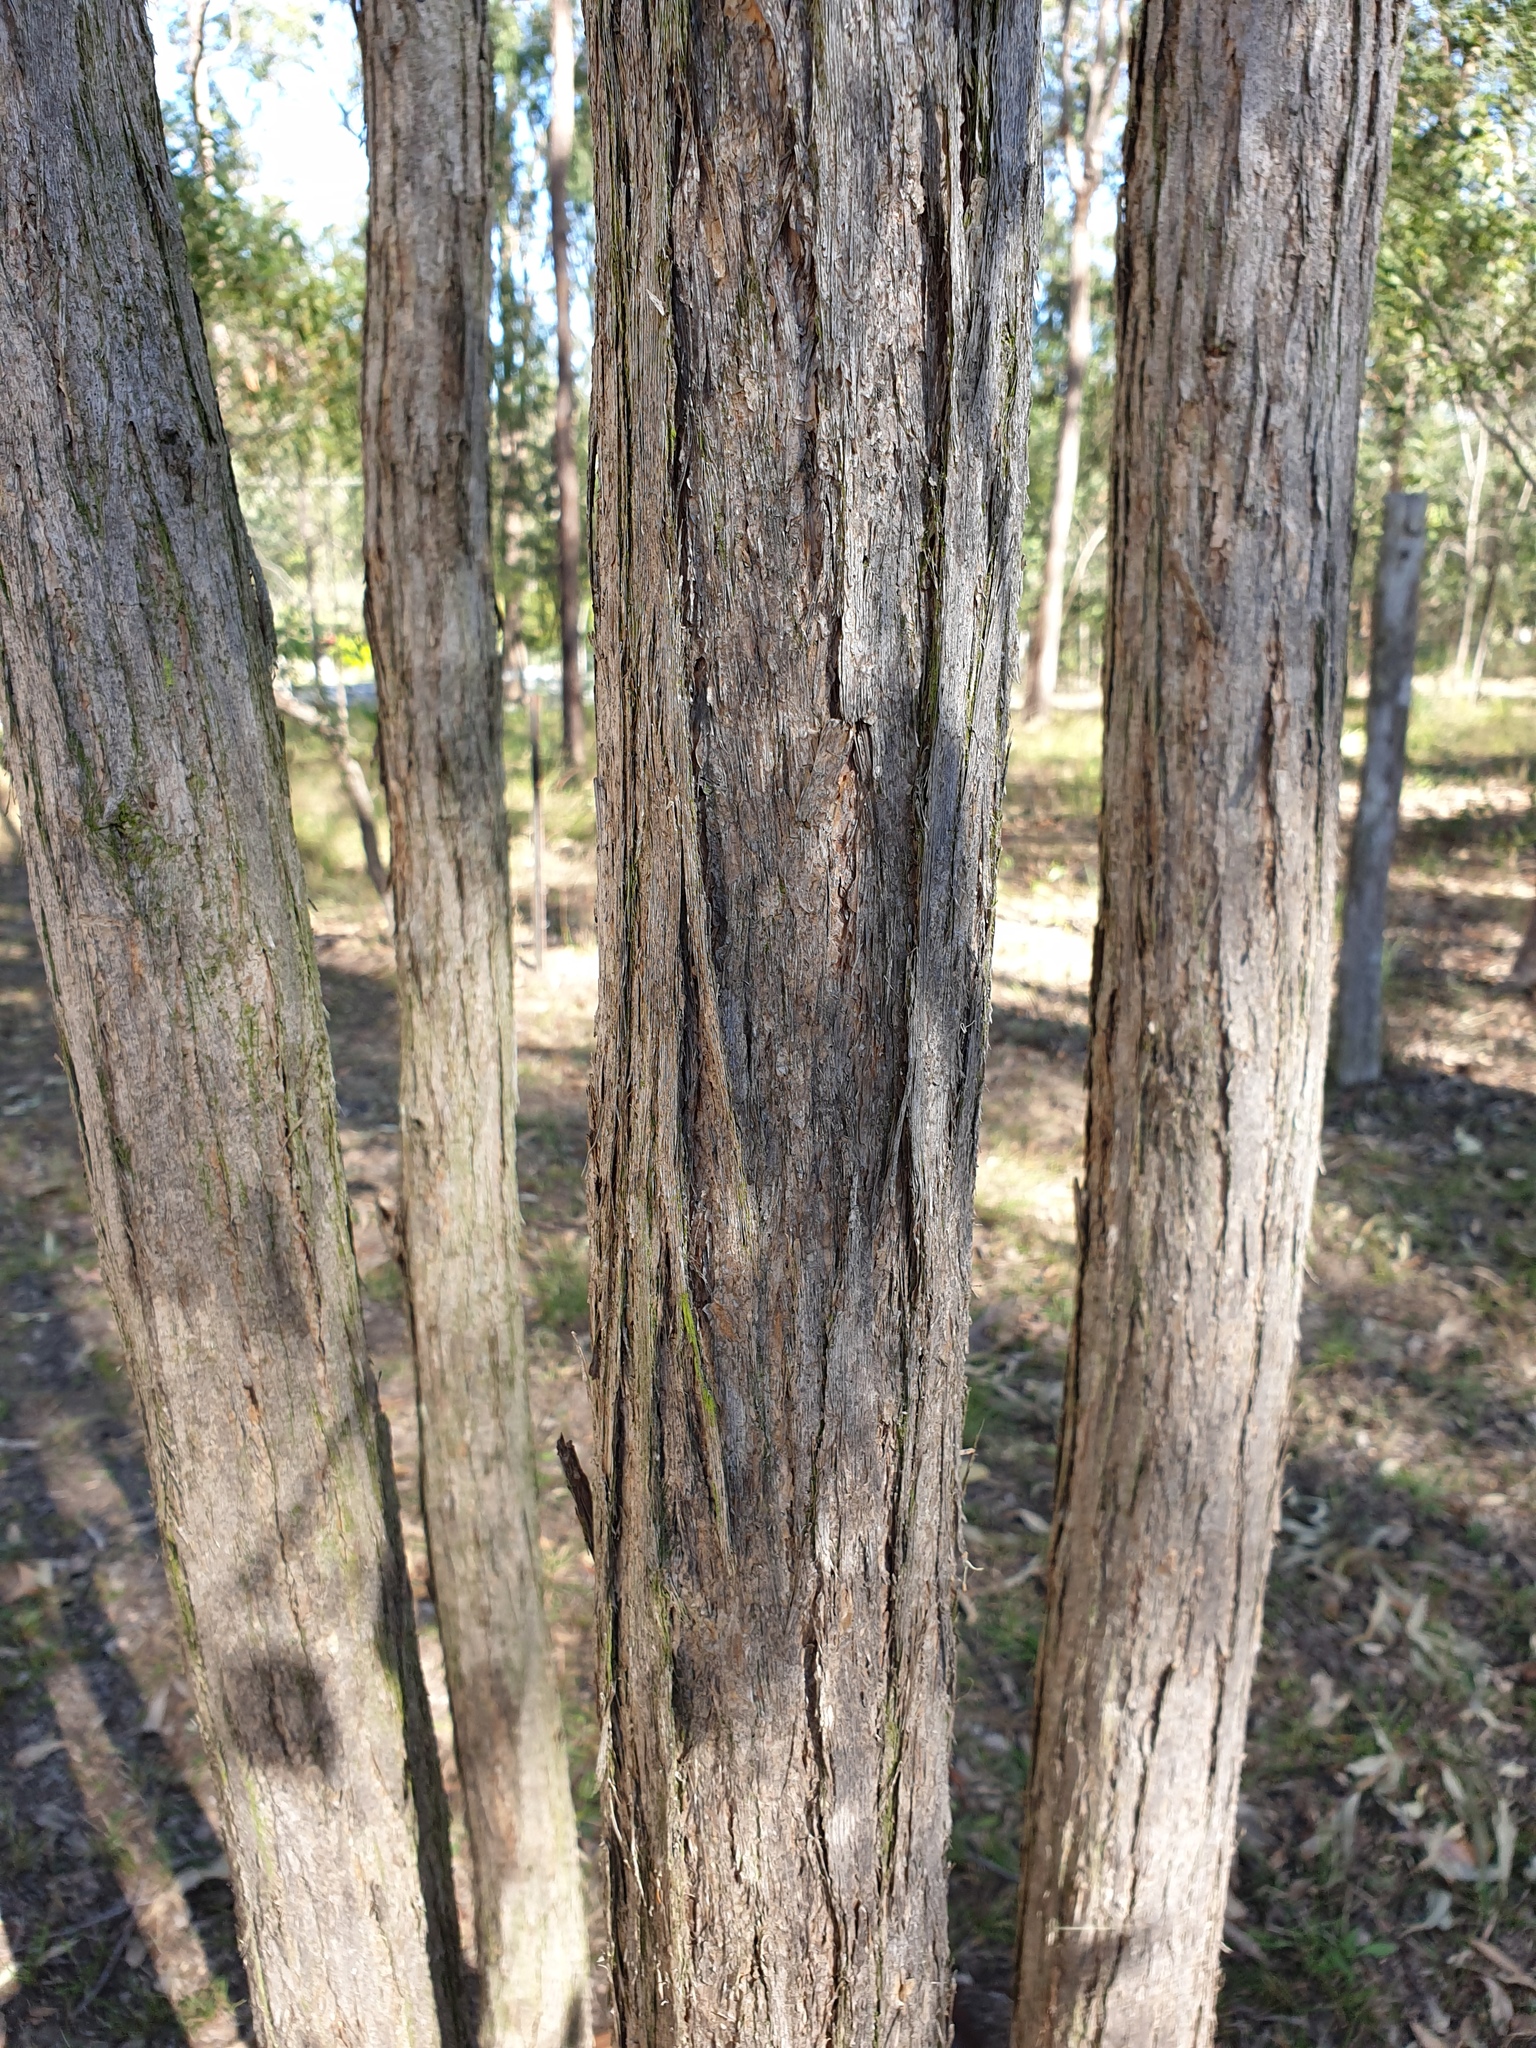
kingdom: Plantae
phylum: Tracheophyta
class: Magnoliopsida
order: Myrtales
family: Myrtaceae
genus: Lophostemon
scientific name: Lophostemon suaveolens
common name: Paperbark-mahogany
